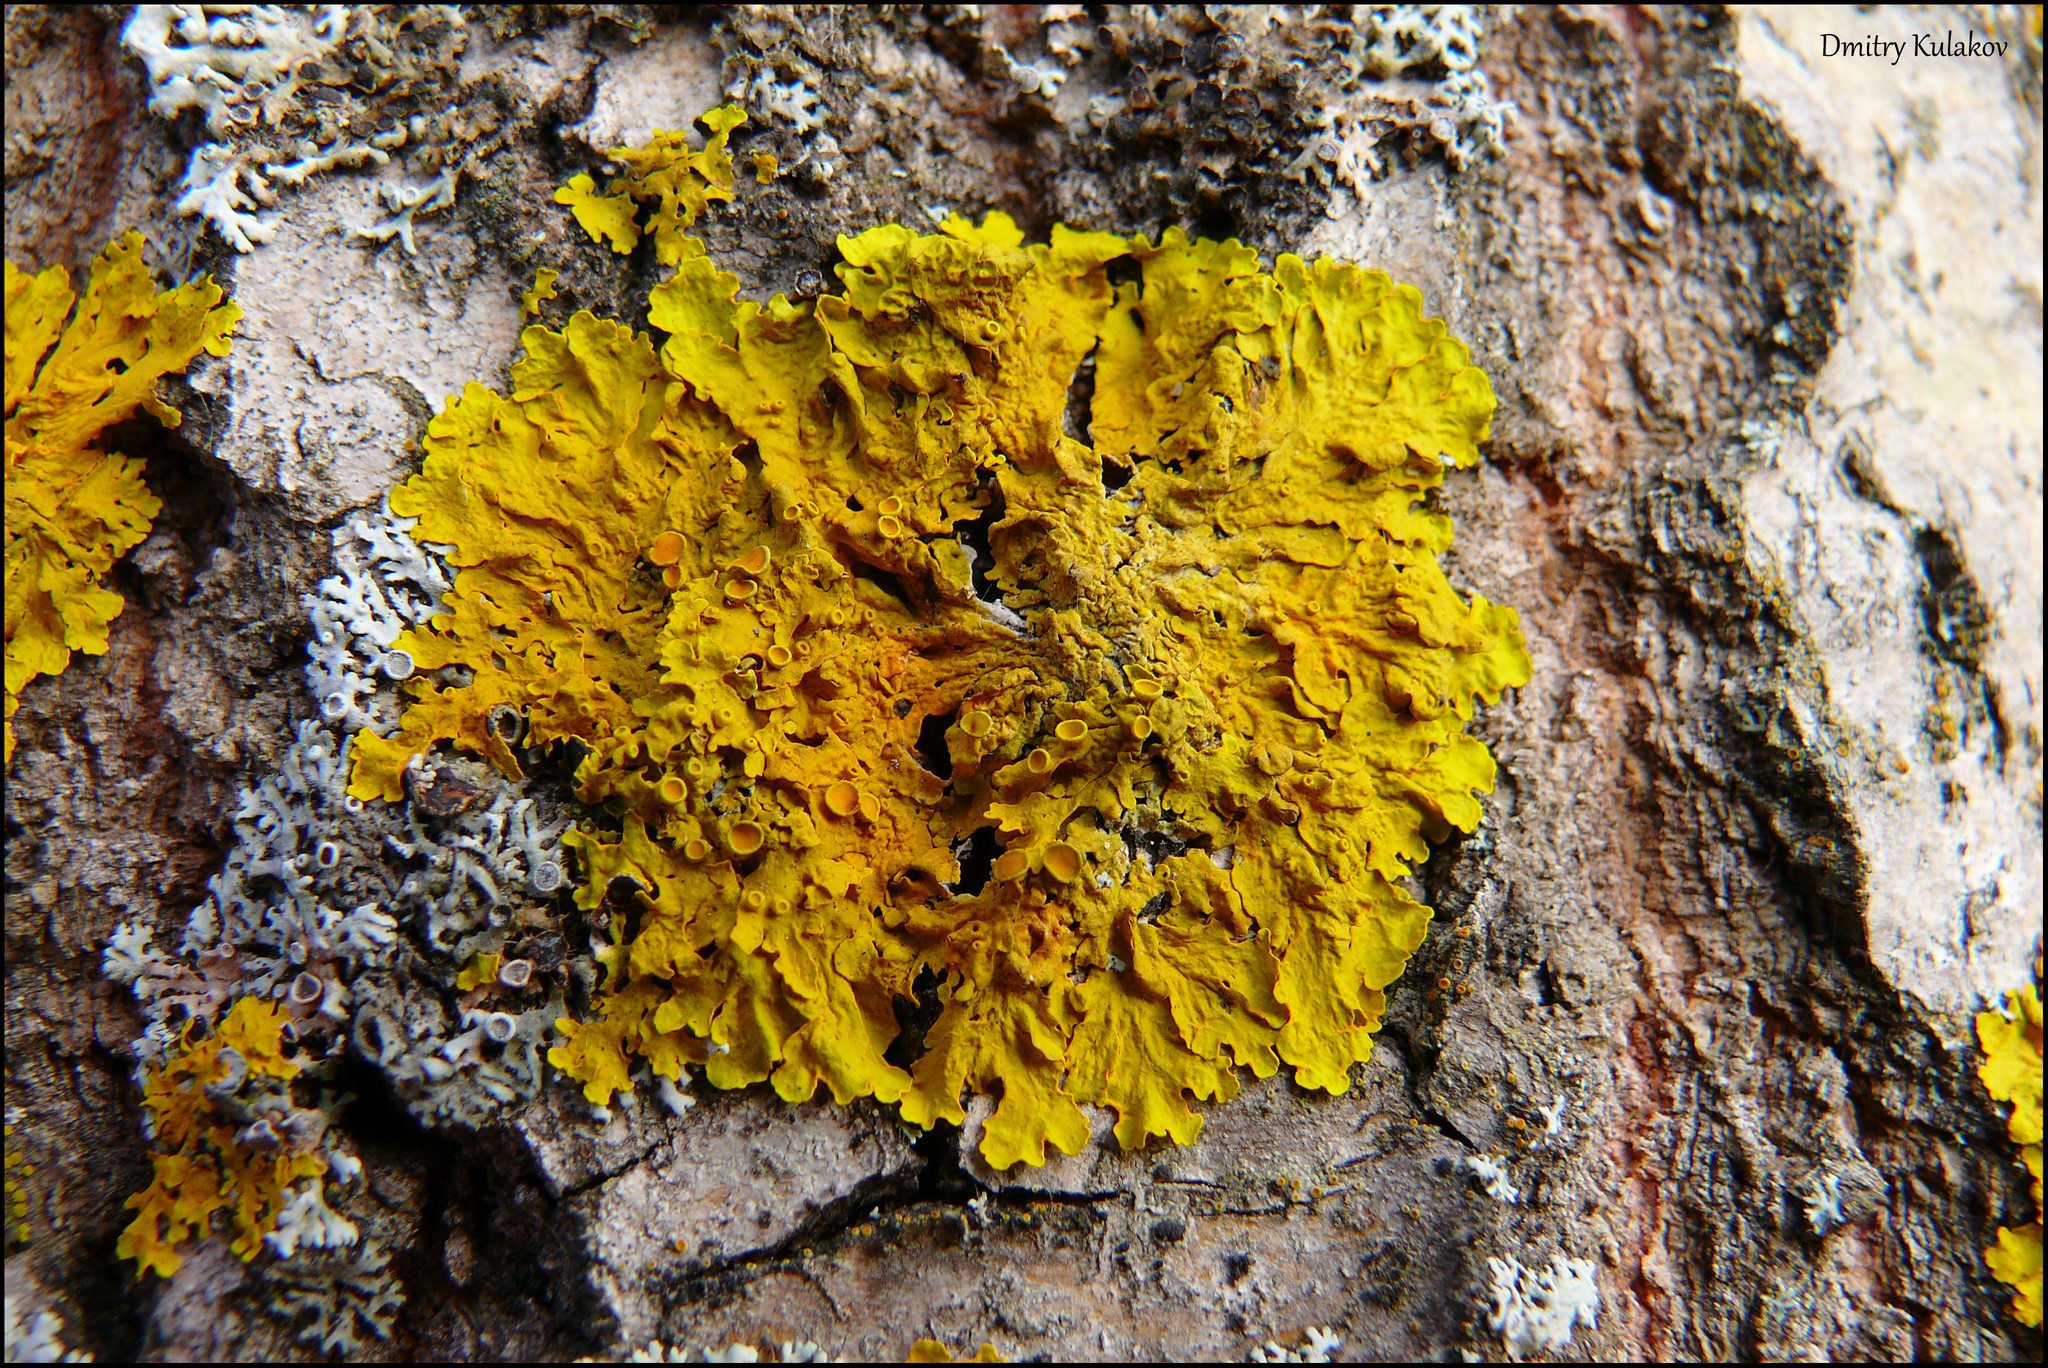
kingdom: Fungi
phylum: Ascomycota
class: Lecanoromycetes
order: Teloschistales
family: Teloschistaceae
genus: Xanthoria
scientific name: Xanthoria parietina
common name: Common orange lichen
